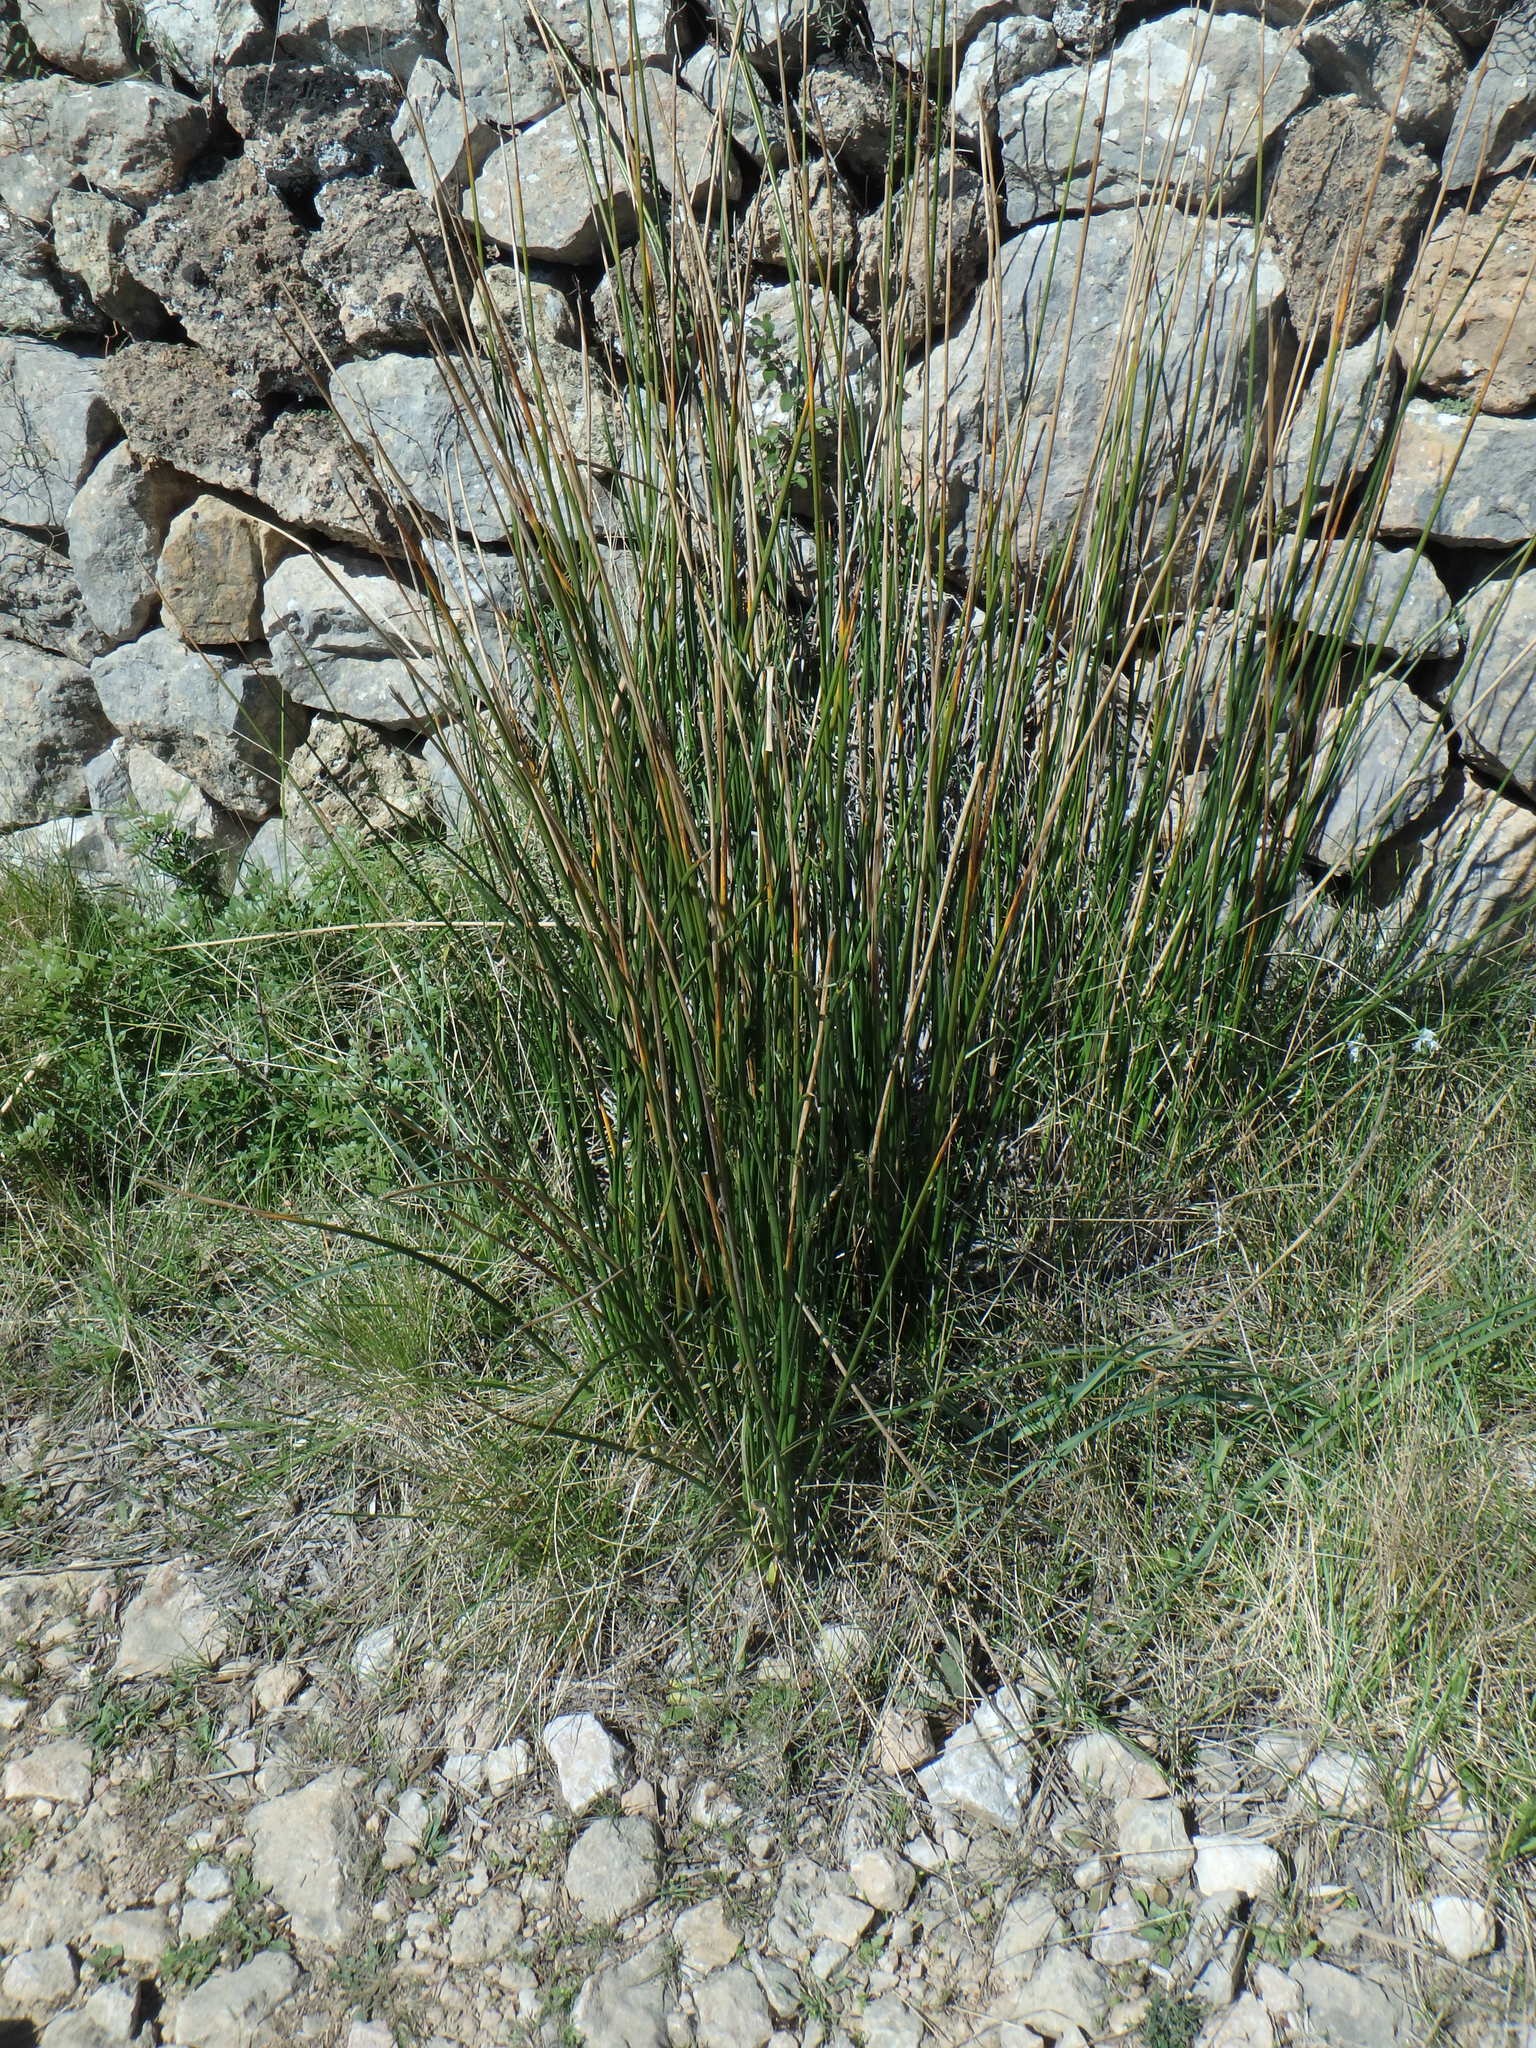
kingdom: Plantae
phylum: Tracheophyta
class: Liliopsida
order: Poales
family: Cyperaceae
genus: Scirpoides
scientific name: Scirpoides holoschoenus
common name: Round-headed club-rush
